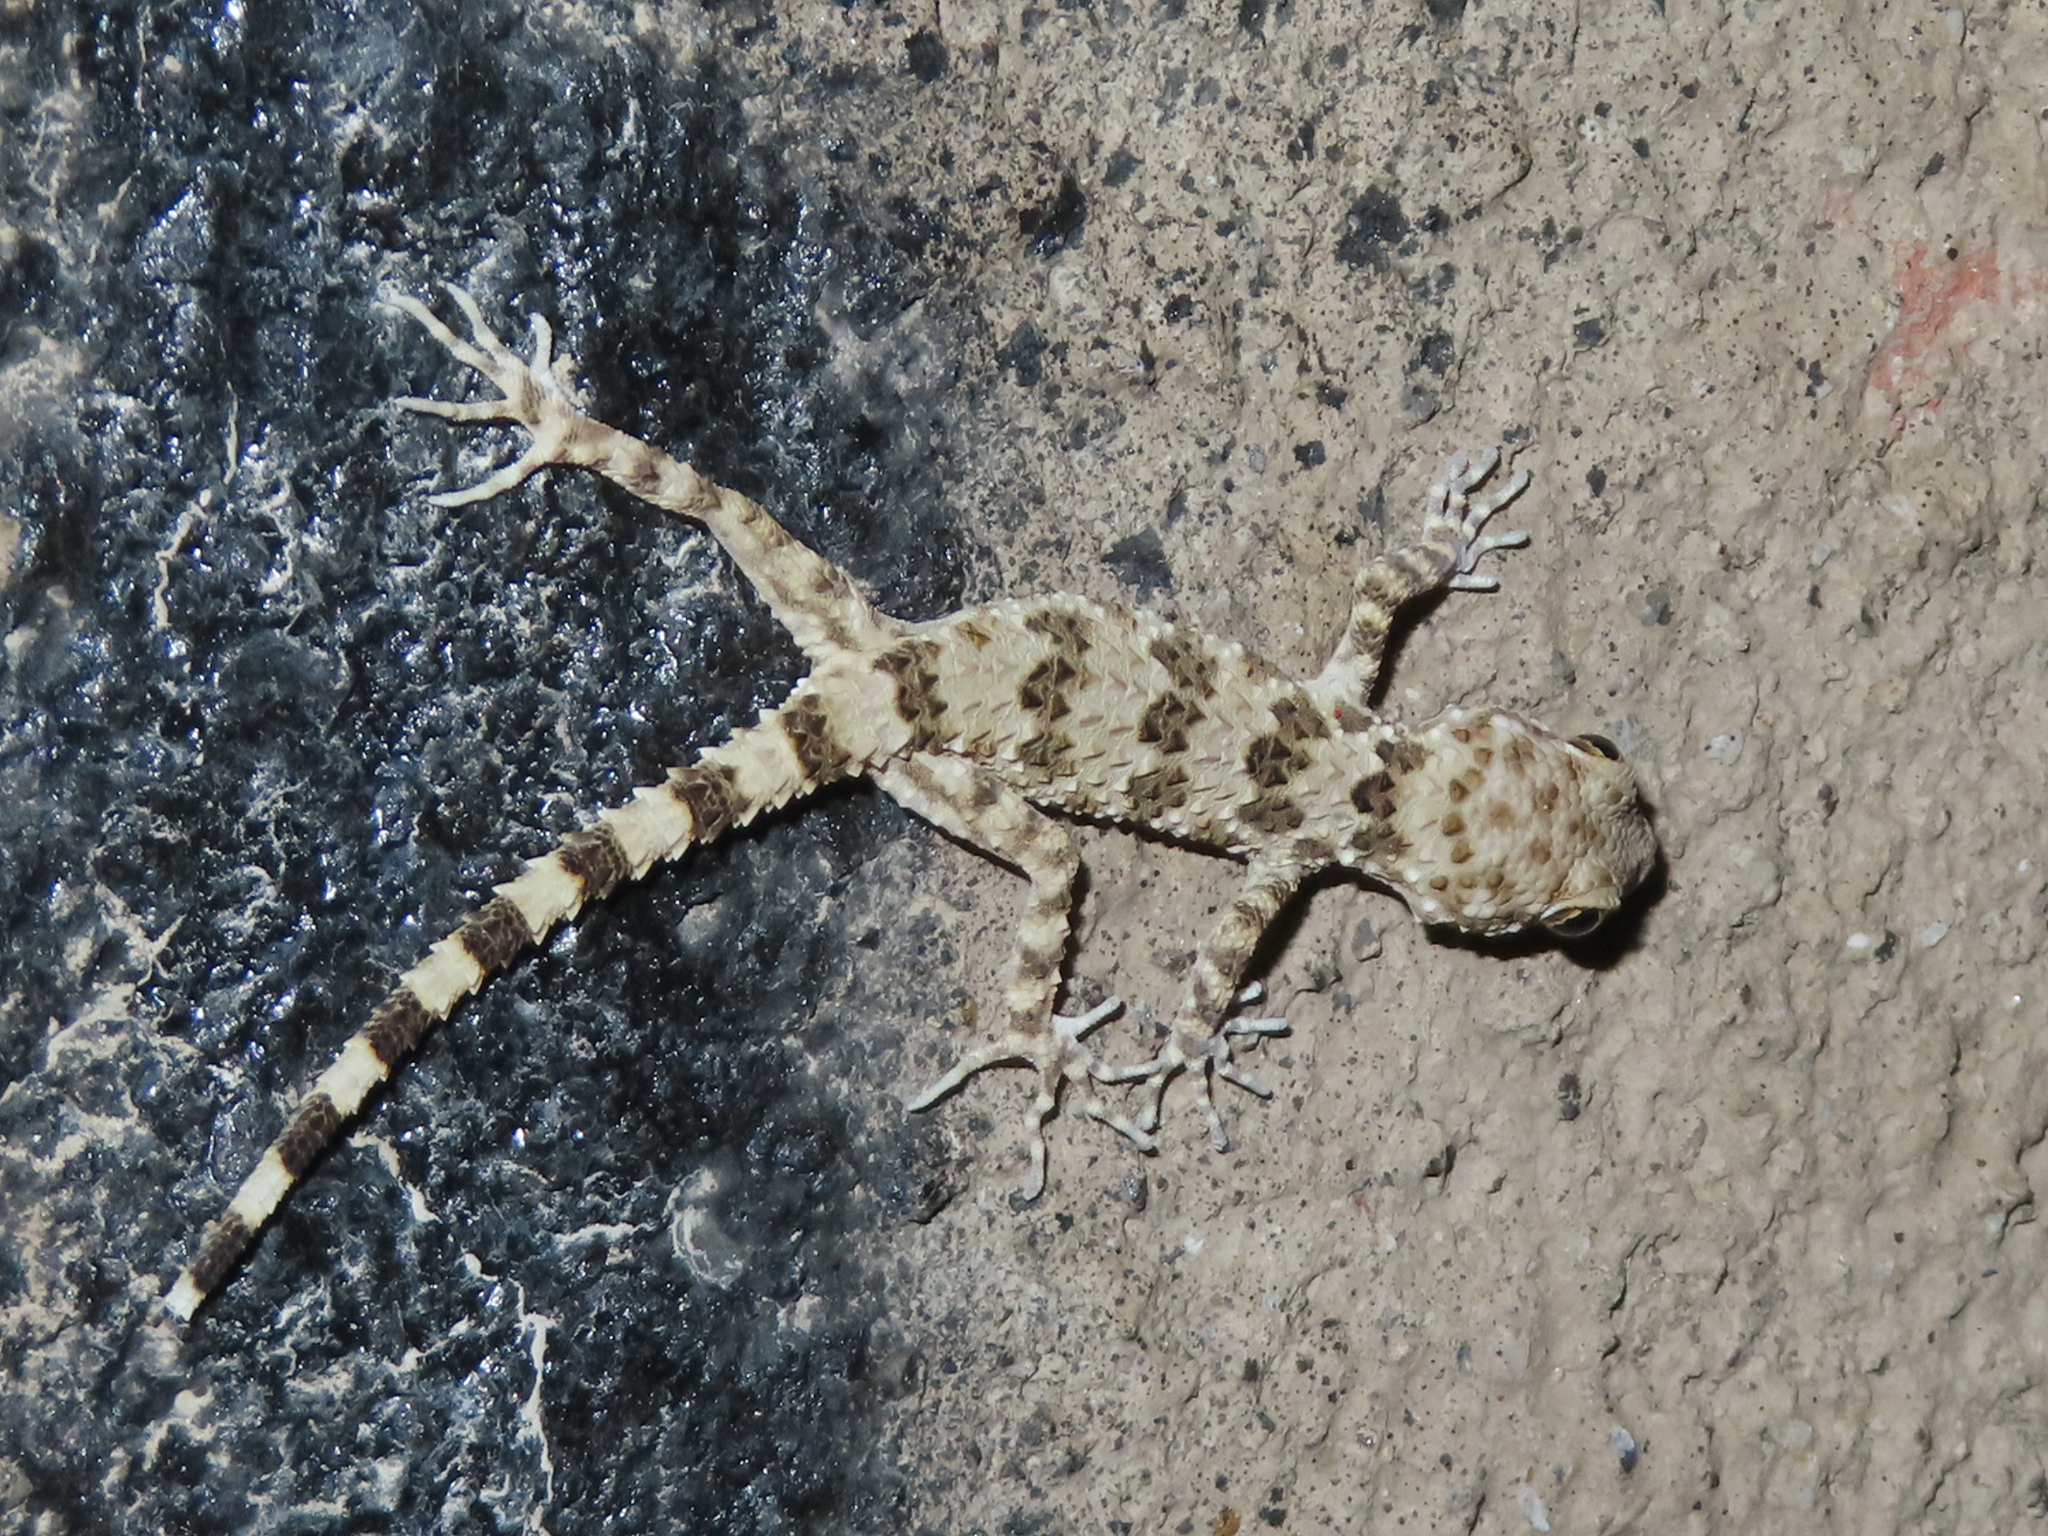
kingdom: Animalia
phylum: Chordata
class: Squamata
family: Gekkonidae
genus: Tenuidactylus
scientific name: Tenuidactylus caspius
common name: Caspian bent-toed gecko
